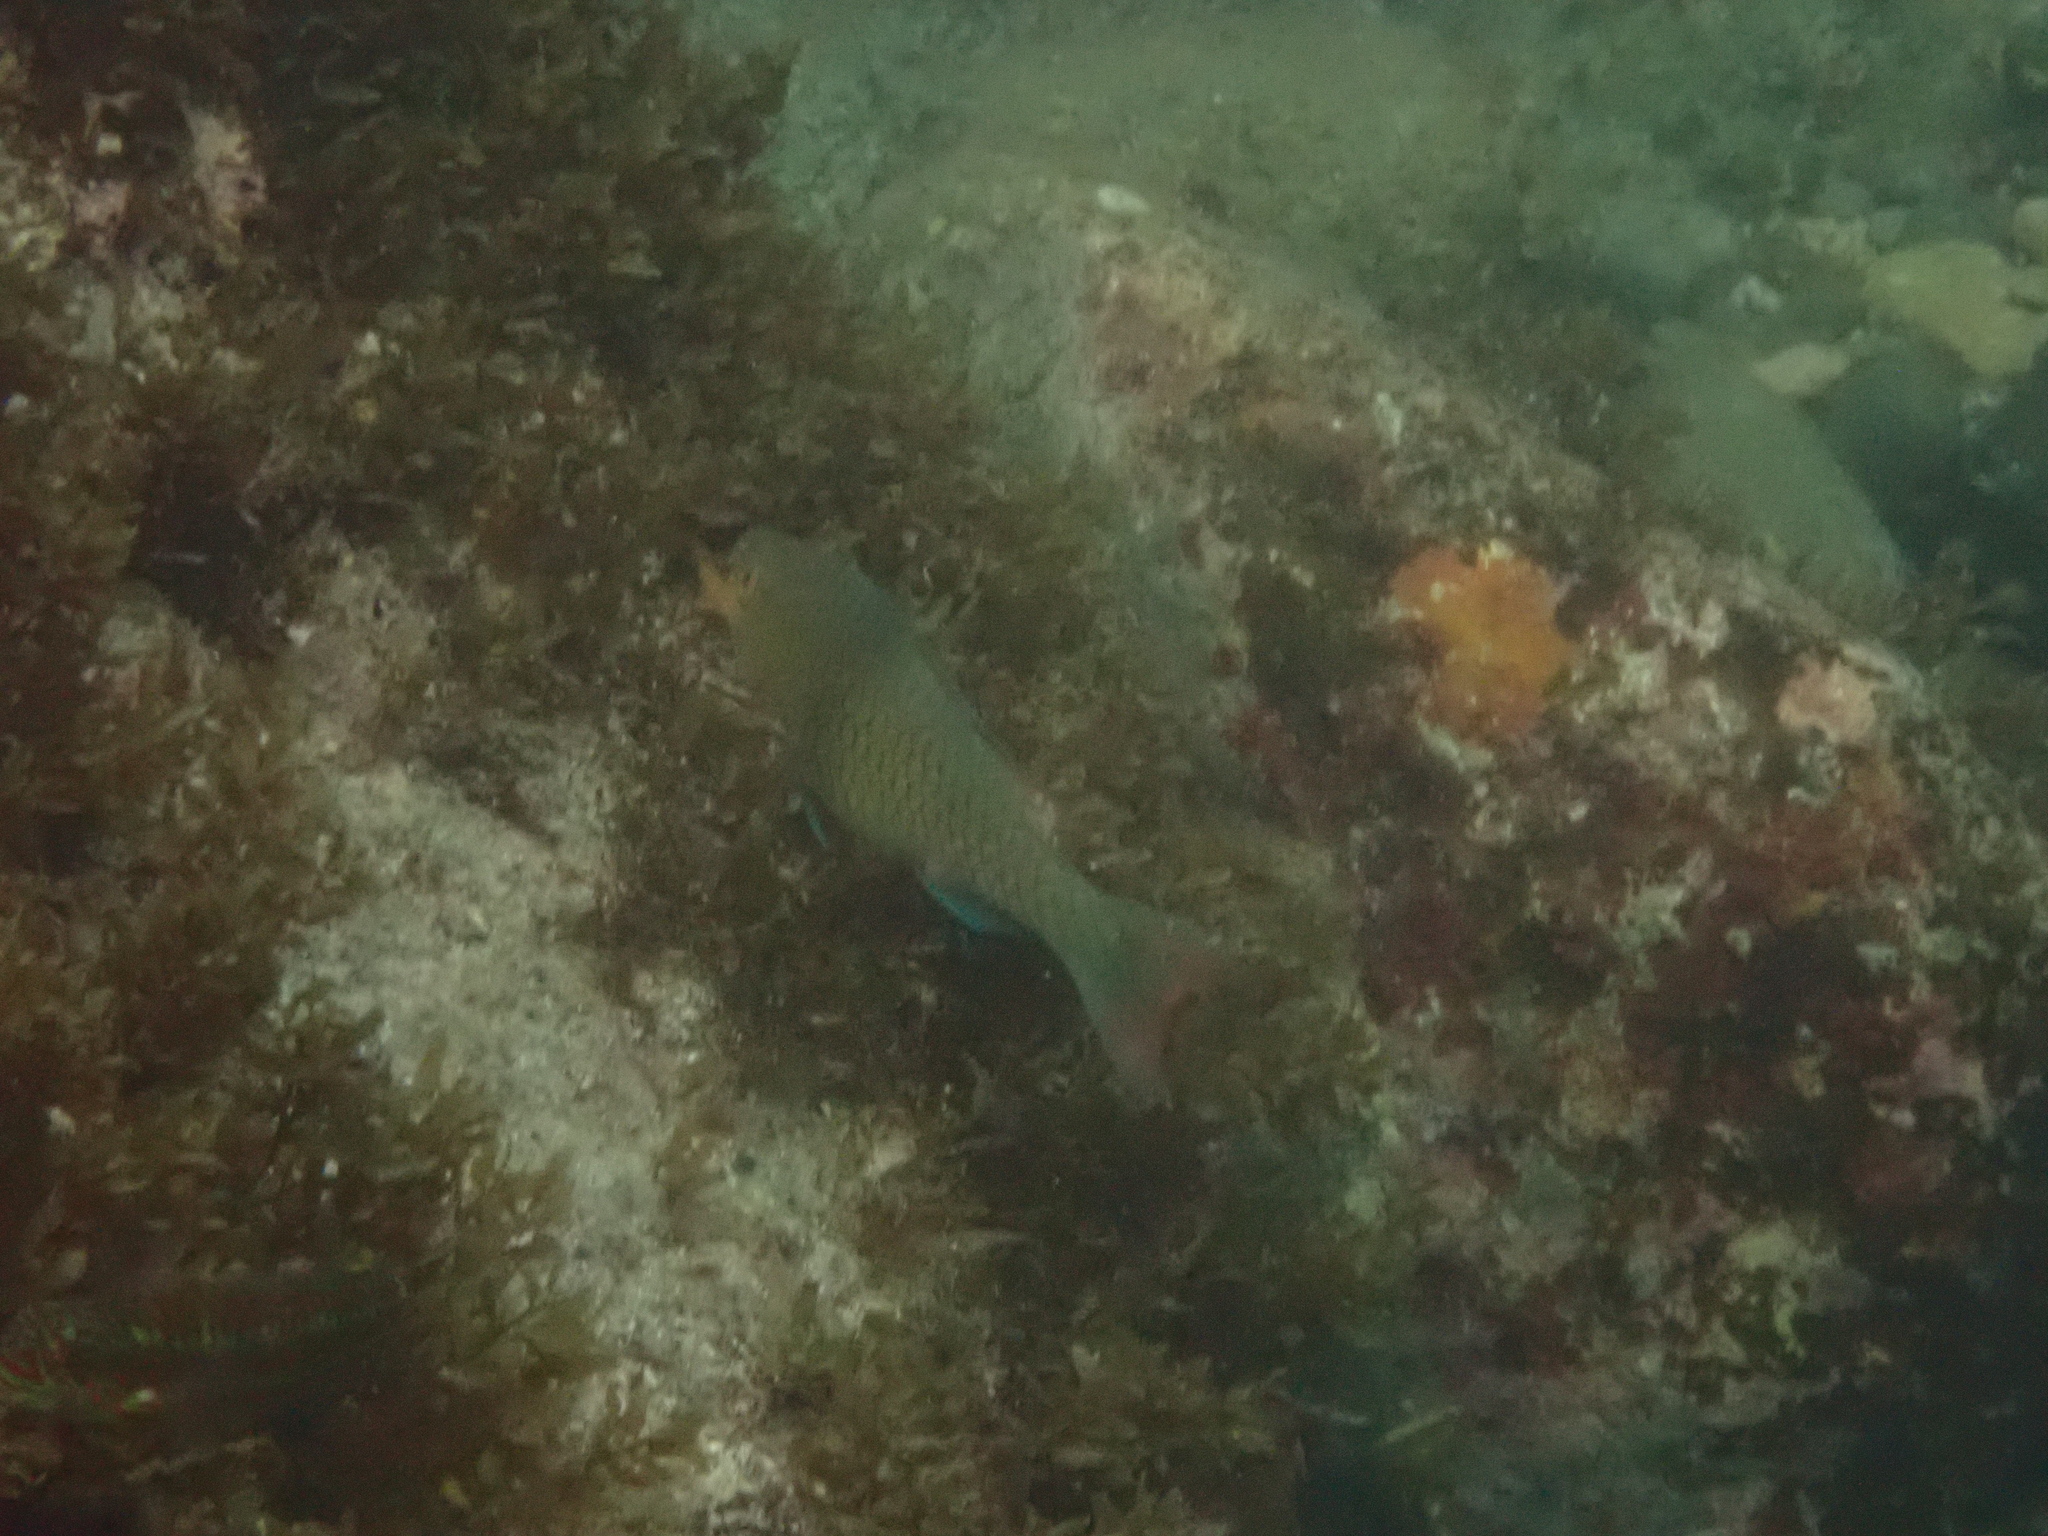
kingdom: Animalia
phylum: Chordata
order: Perciformes
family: Scaridae
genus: Scarus
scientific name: Scarus rubroviolaceus
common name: Ember parrotfish
